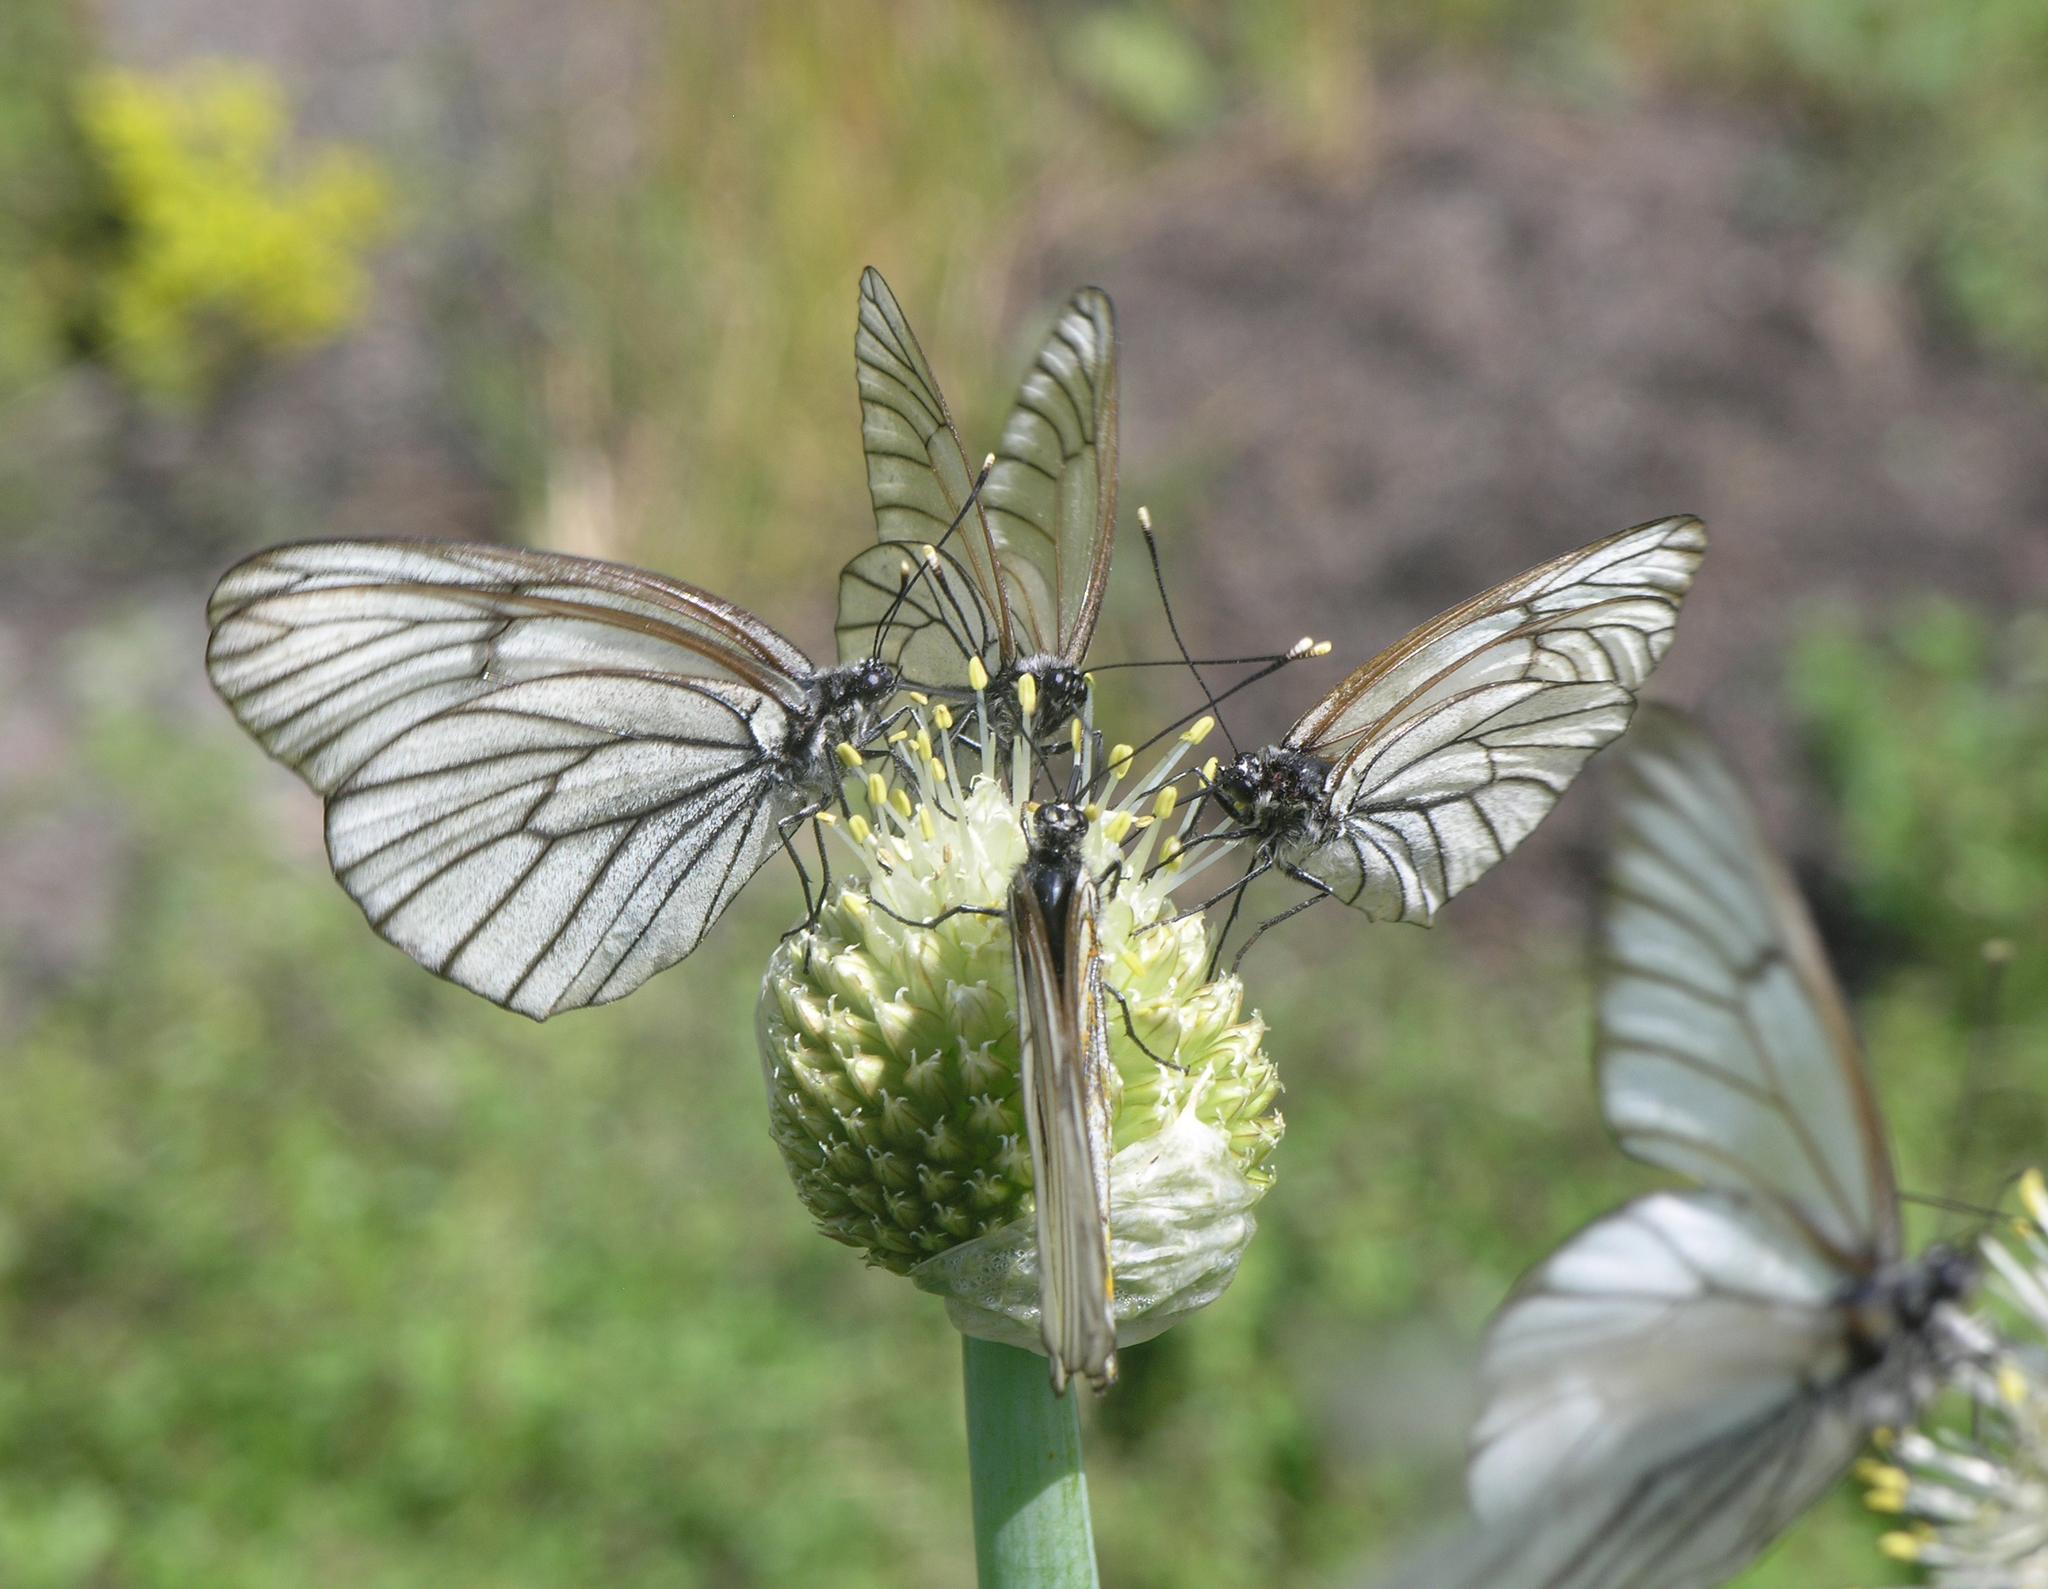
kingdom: Animalia
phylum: Arthropoda
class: Insecta
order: Lepidoptera
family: Pieridae
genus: Aporia
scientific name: Aporia crataegi
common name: Black-veined white
